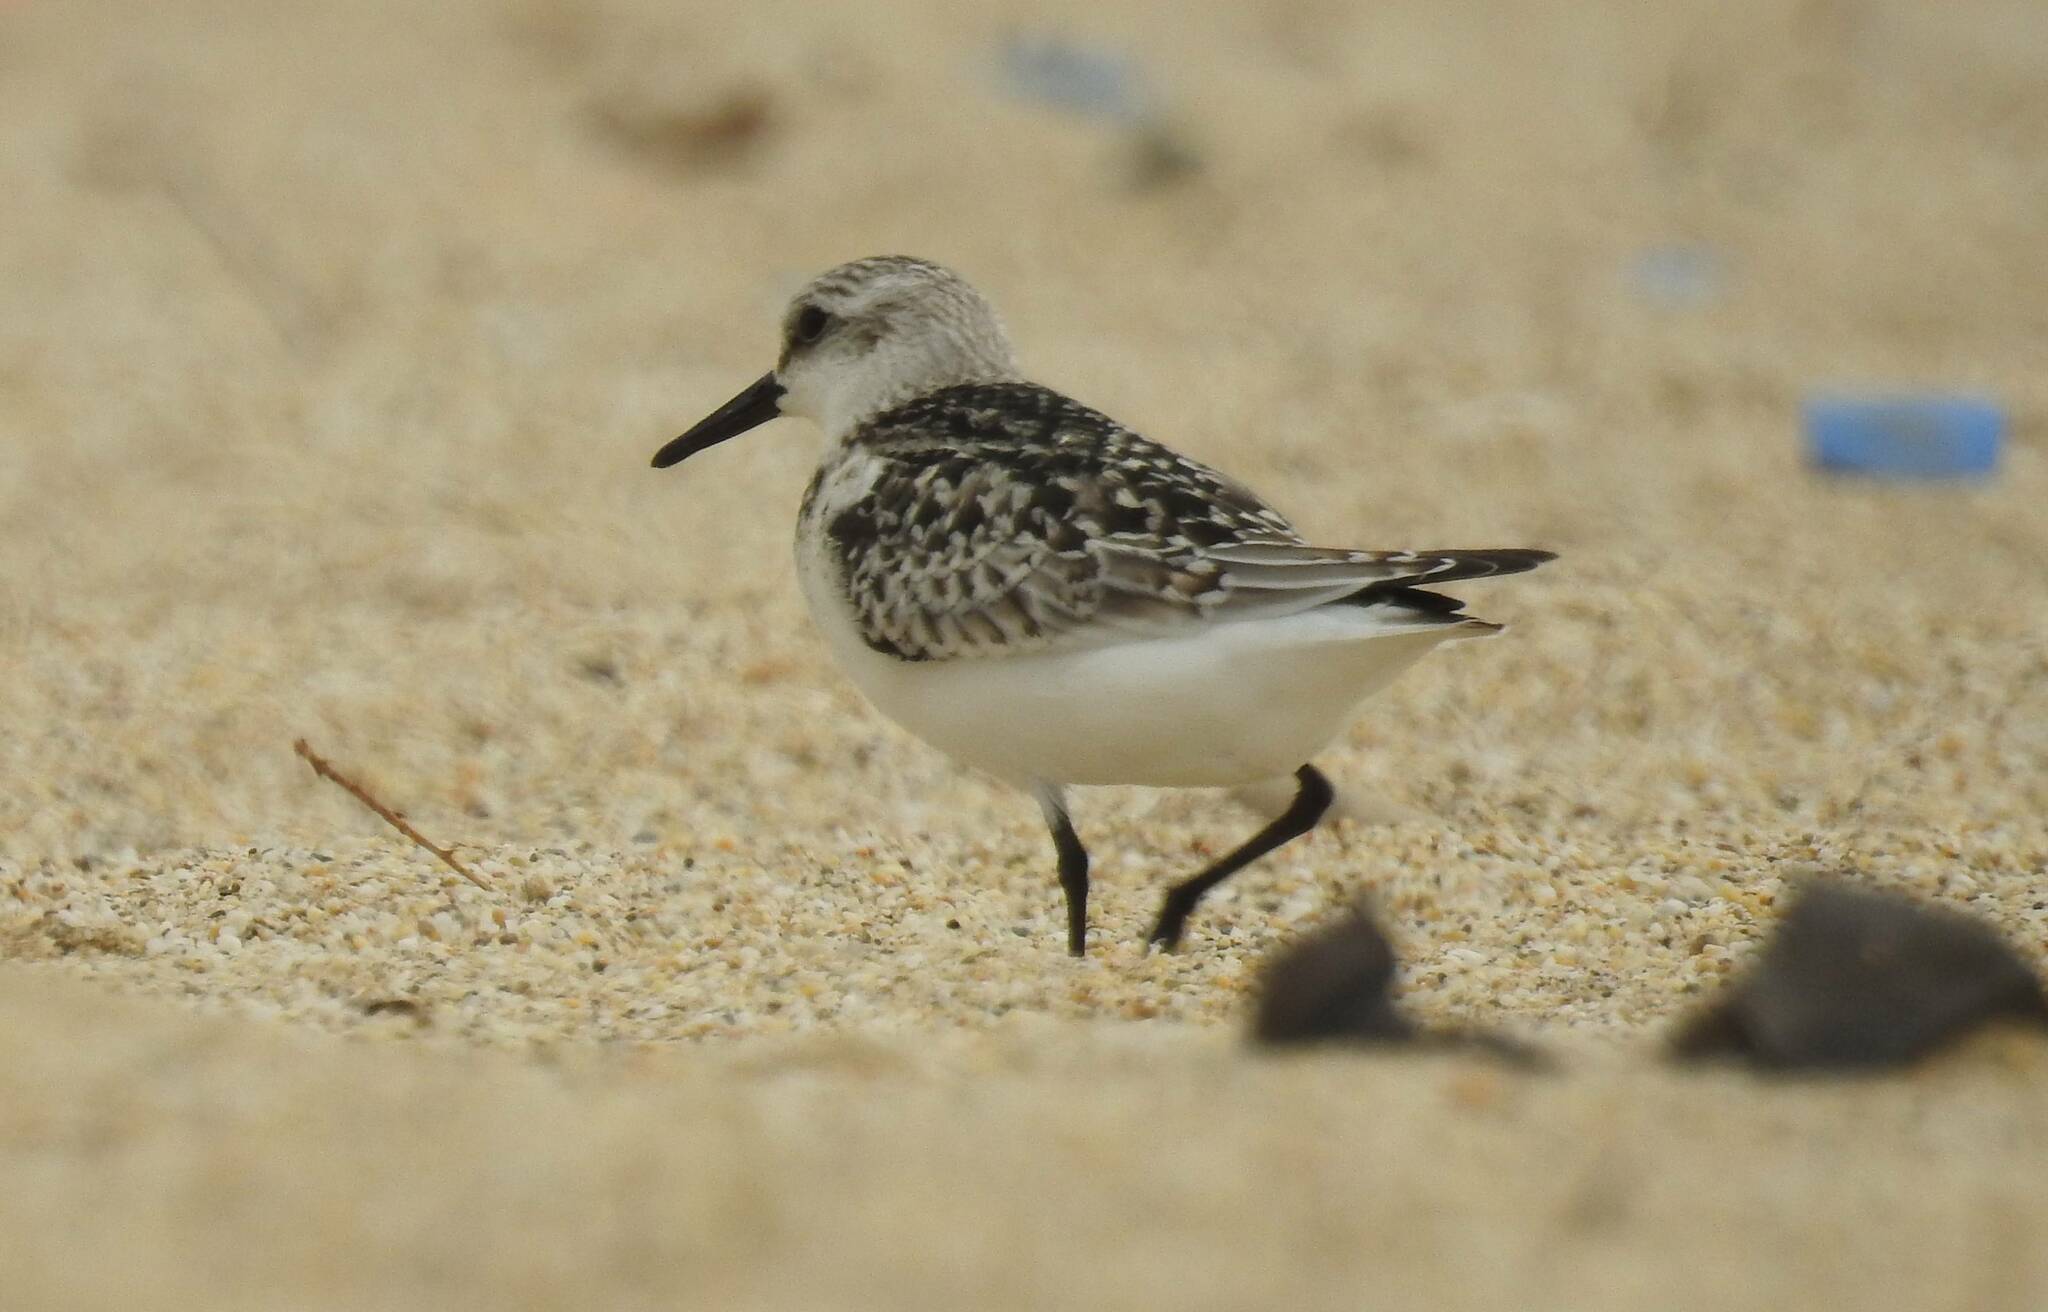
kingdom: Animalia
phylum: Chordata
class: Aves
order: Charadriiformes
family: Scolopacidae
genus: Calidris
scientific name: Calidris alba
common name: Sanderling
